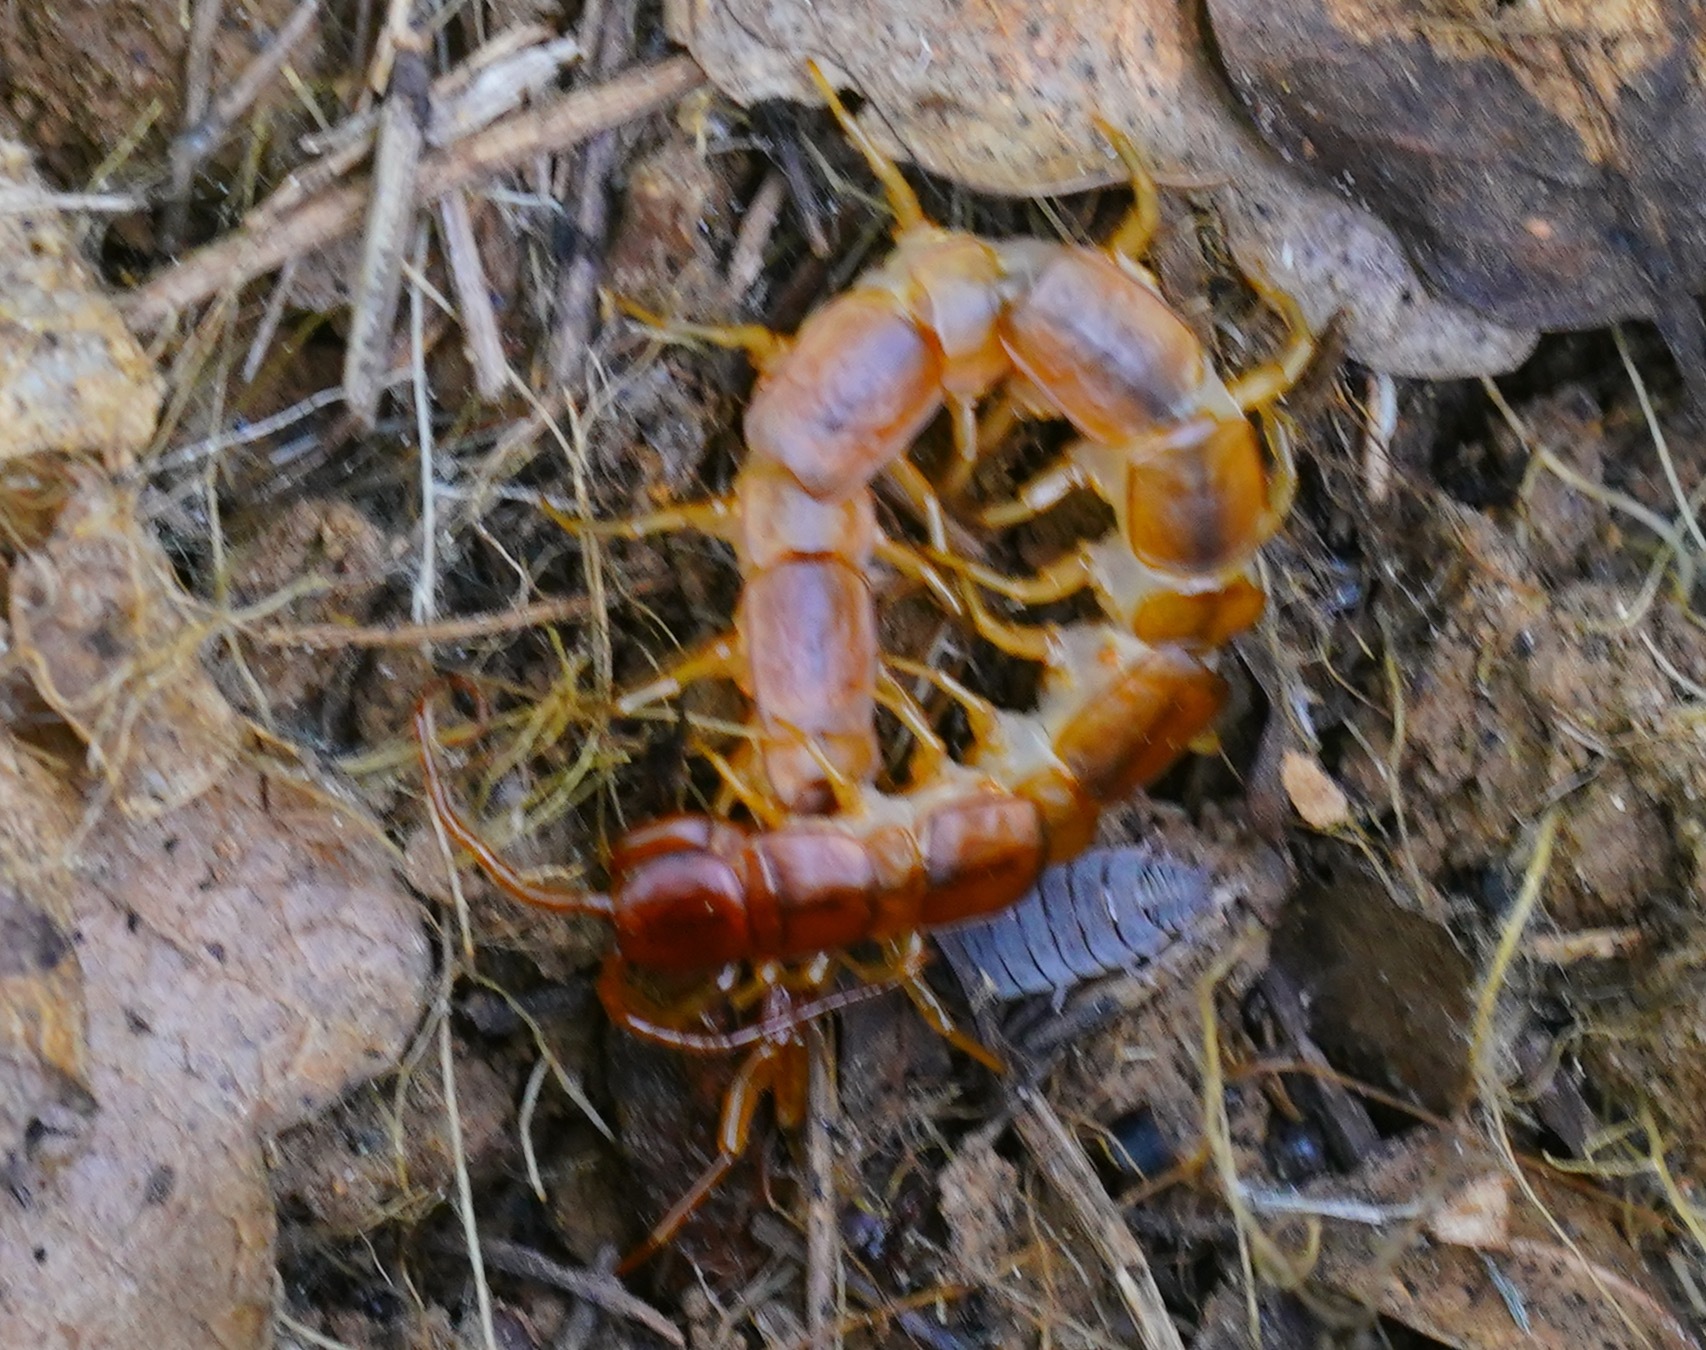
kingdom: Animalia
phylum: Arthropoda
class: Chilopoda
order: Lithobiomorpha
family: Lithobiidae
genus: Pseudolithobius
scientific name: Pseudolithobius megaloporus
